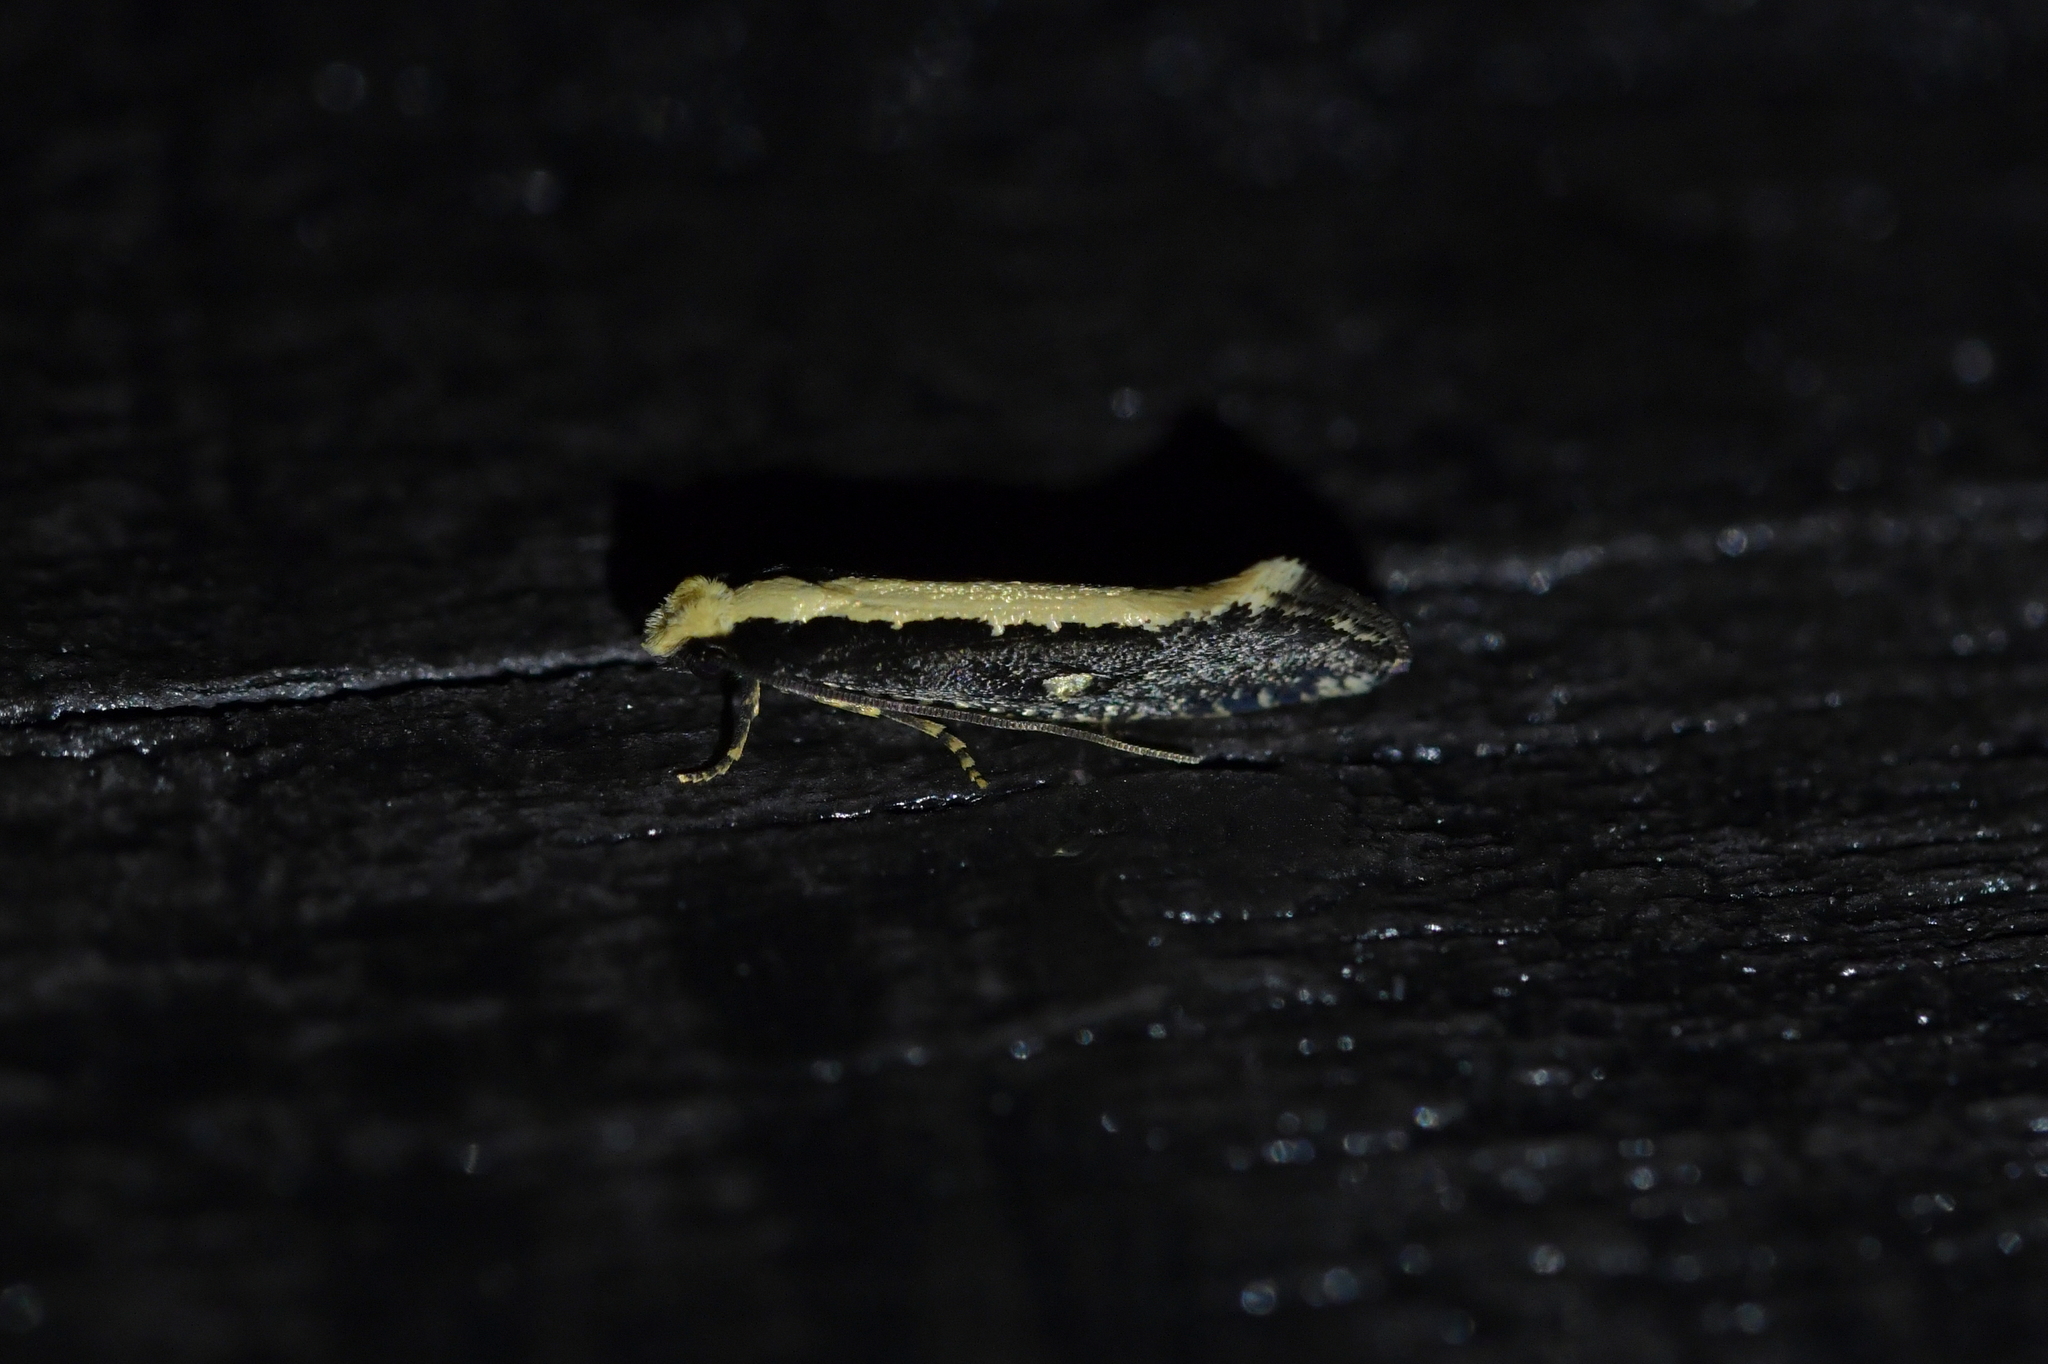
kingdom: Animalia
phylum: Arthropoda
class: Insecta
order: Lepidoptera
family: Tineidae
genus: Monopis
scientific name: Monopis ethelella
